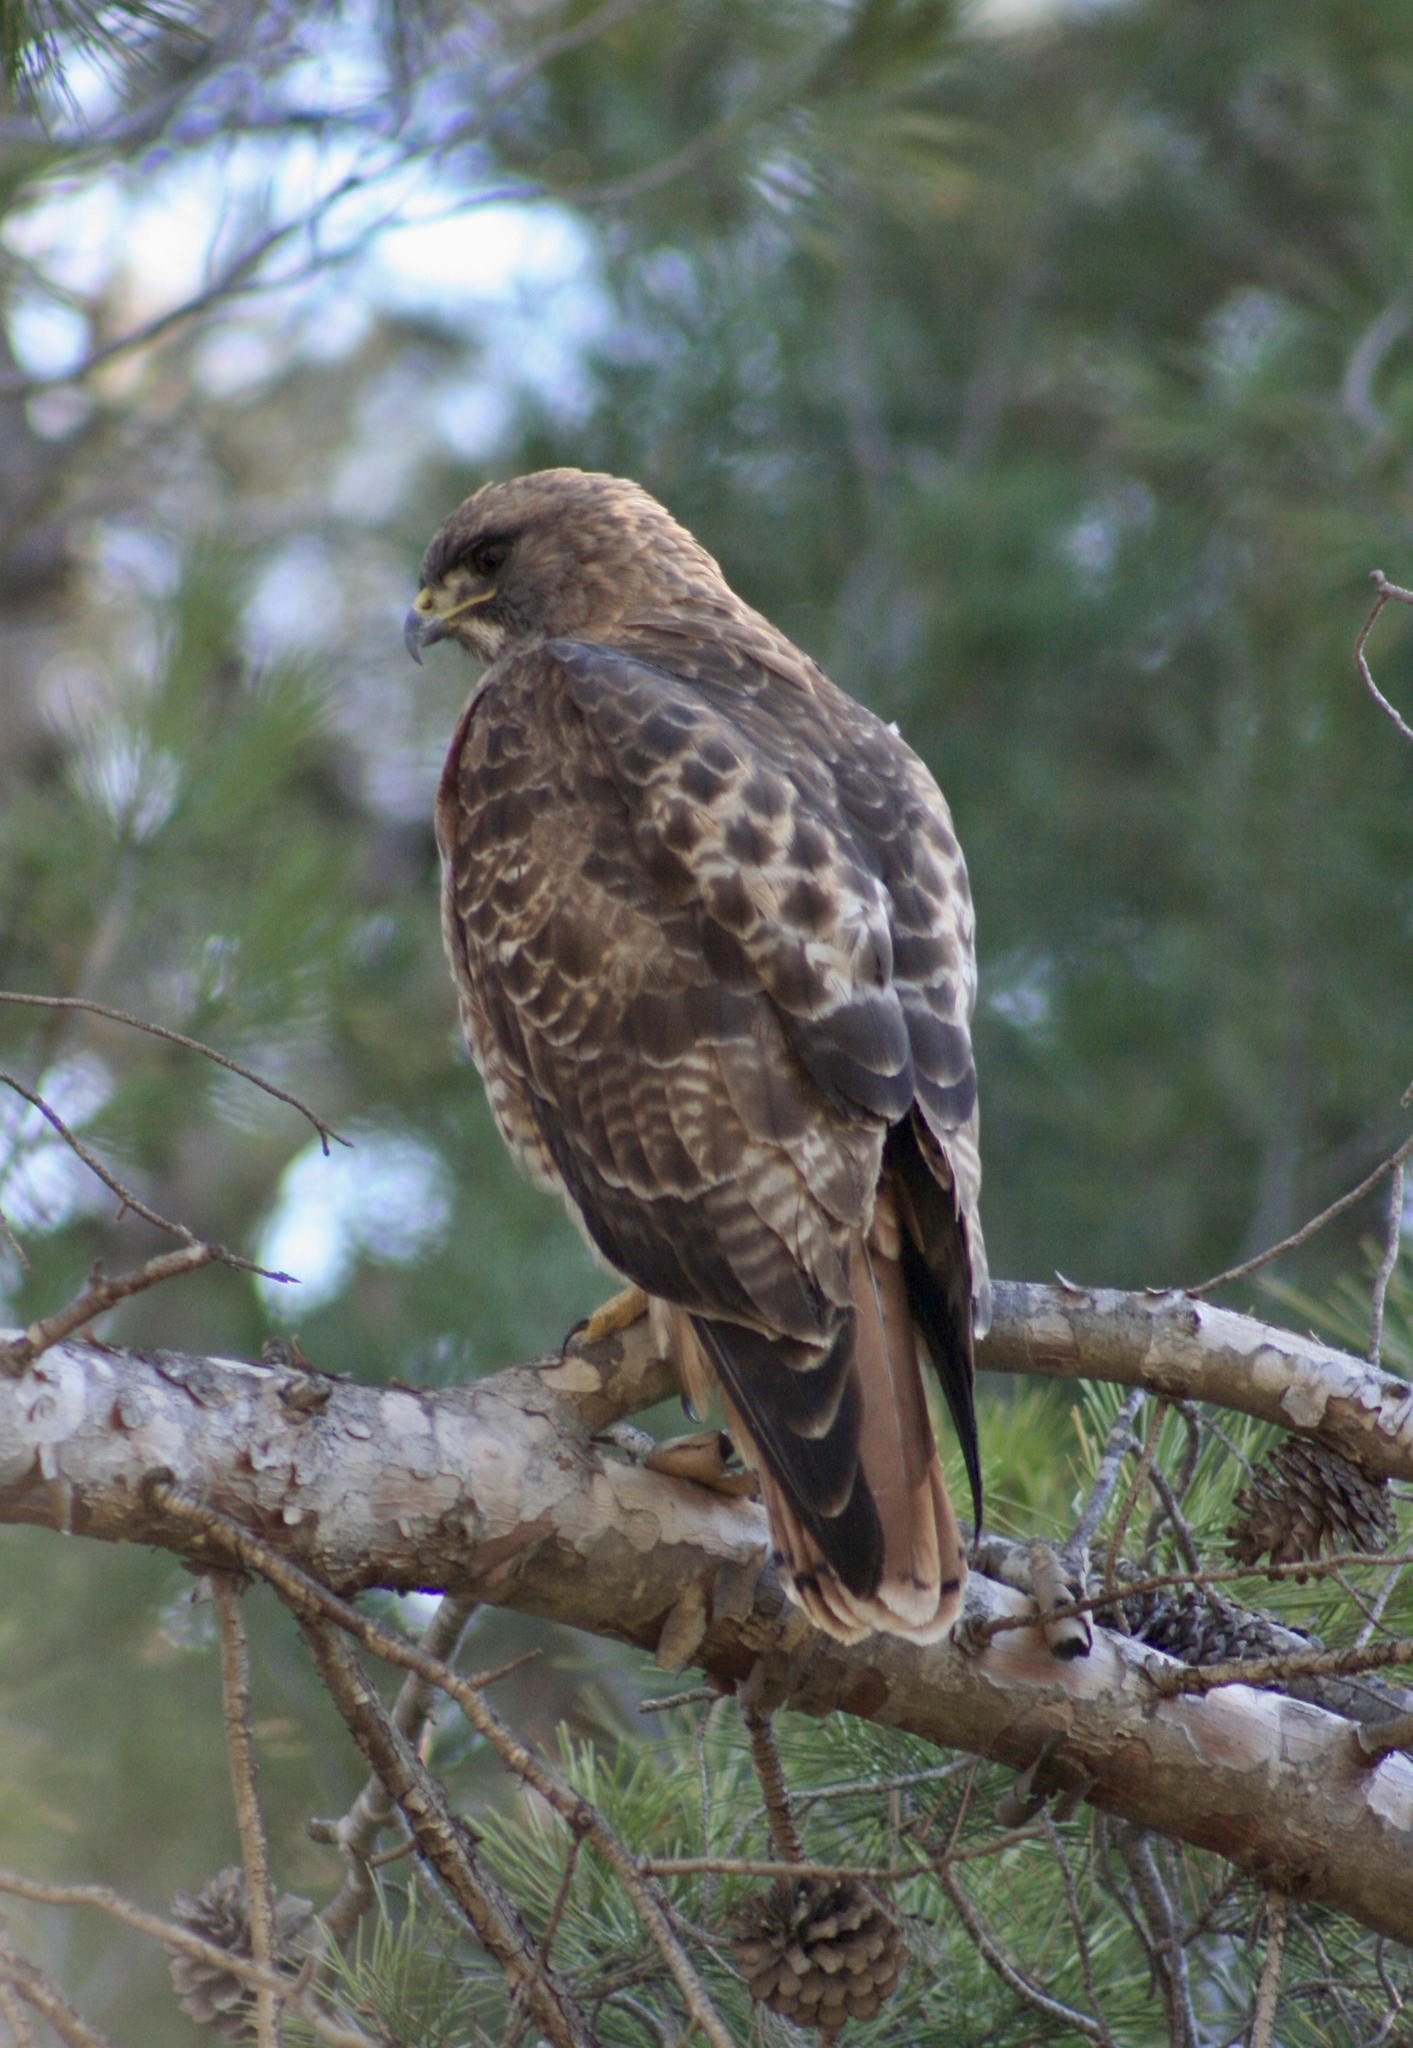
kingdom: Animalia
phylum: Chordata
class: Aves
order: Accipitriformes
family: Accipitridae
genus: Buteo
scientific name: Buteo jamaicensis
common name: Red-tailed hawk
